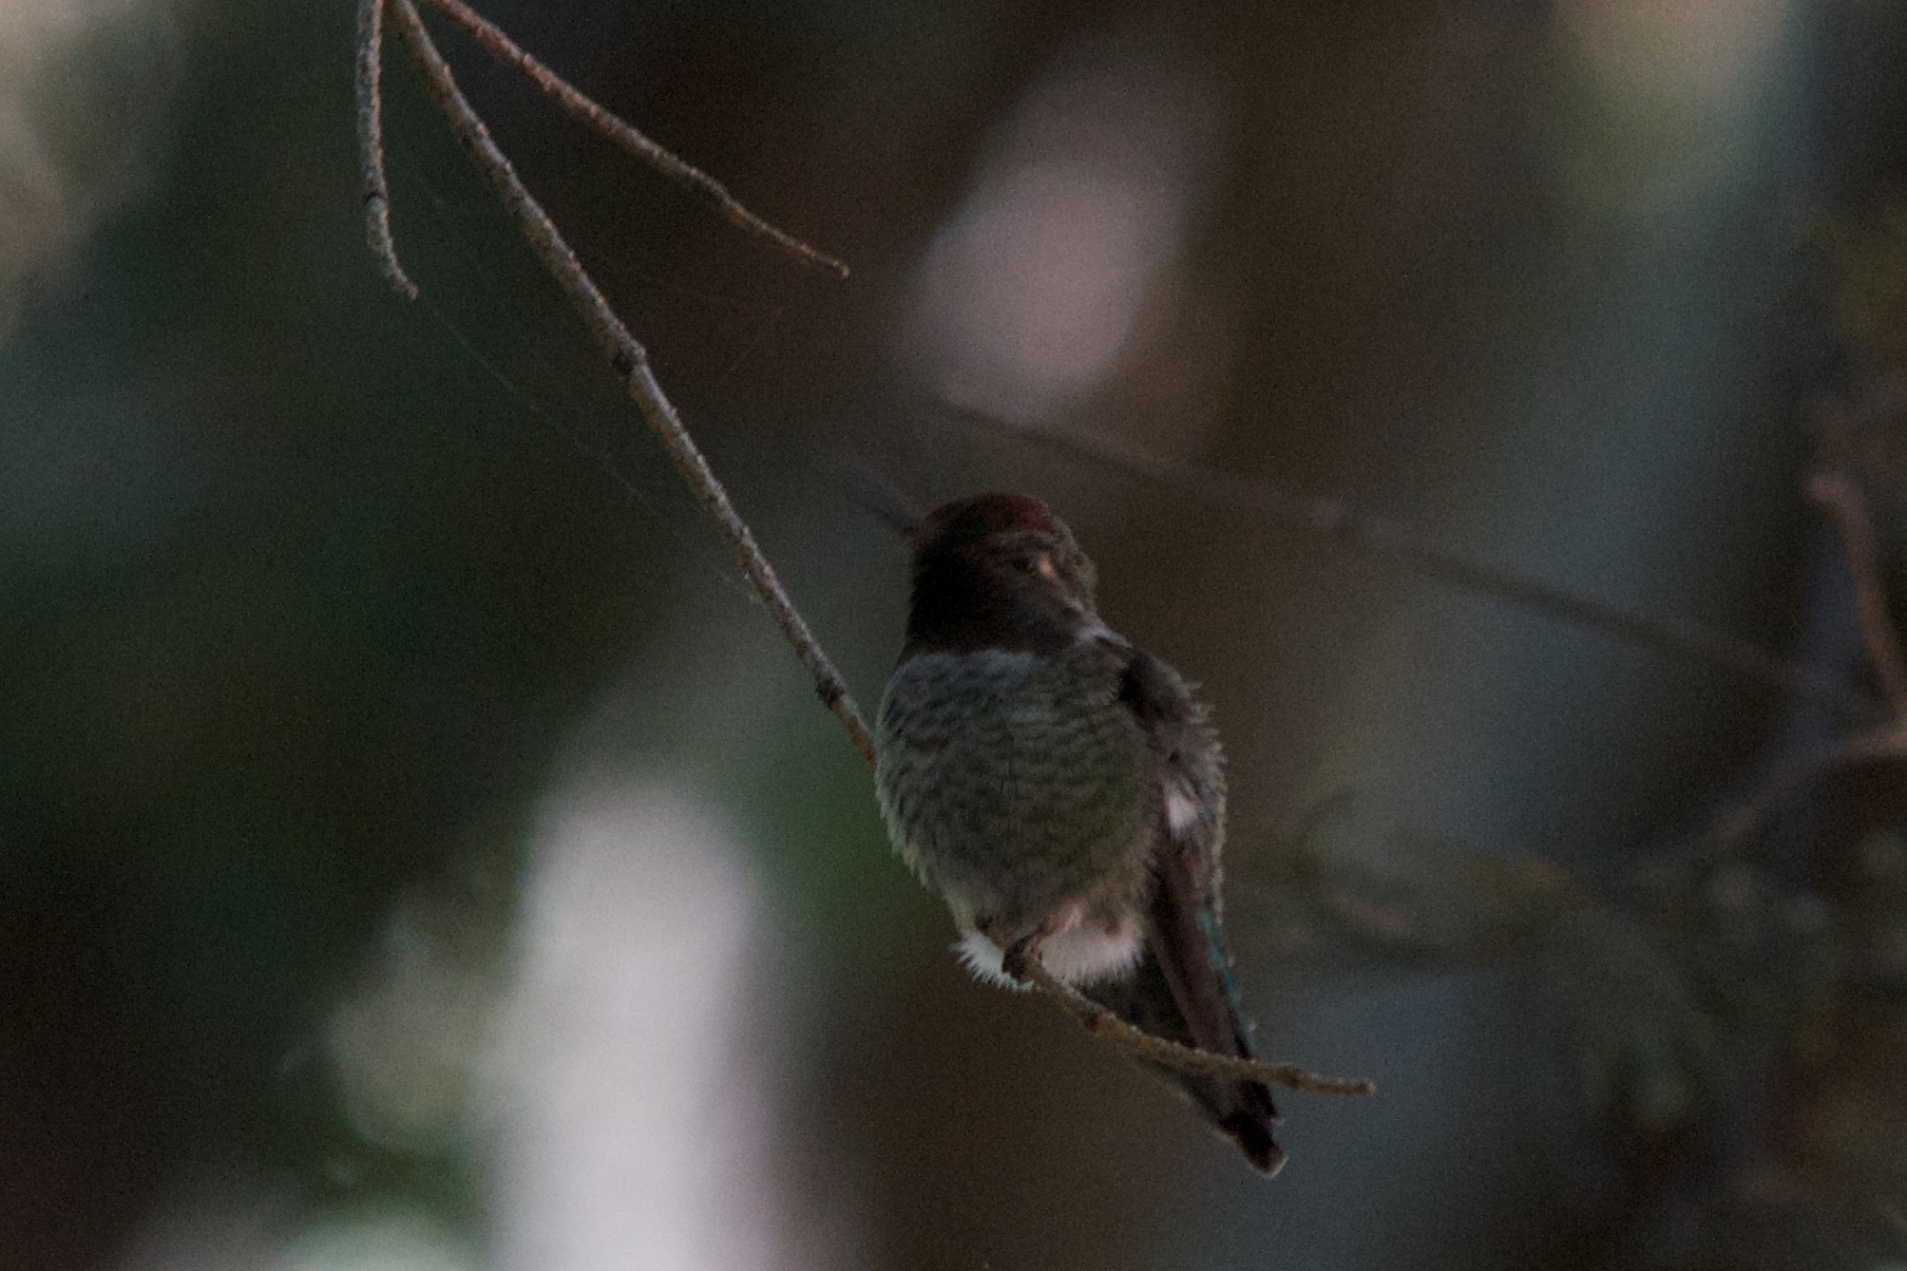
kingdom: Animalia
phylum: Chordata
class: Aves
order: Apodiformes
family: Trochilidae
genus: Calypte
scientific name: Calypte anna
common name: Anna's hummingbird
